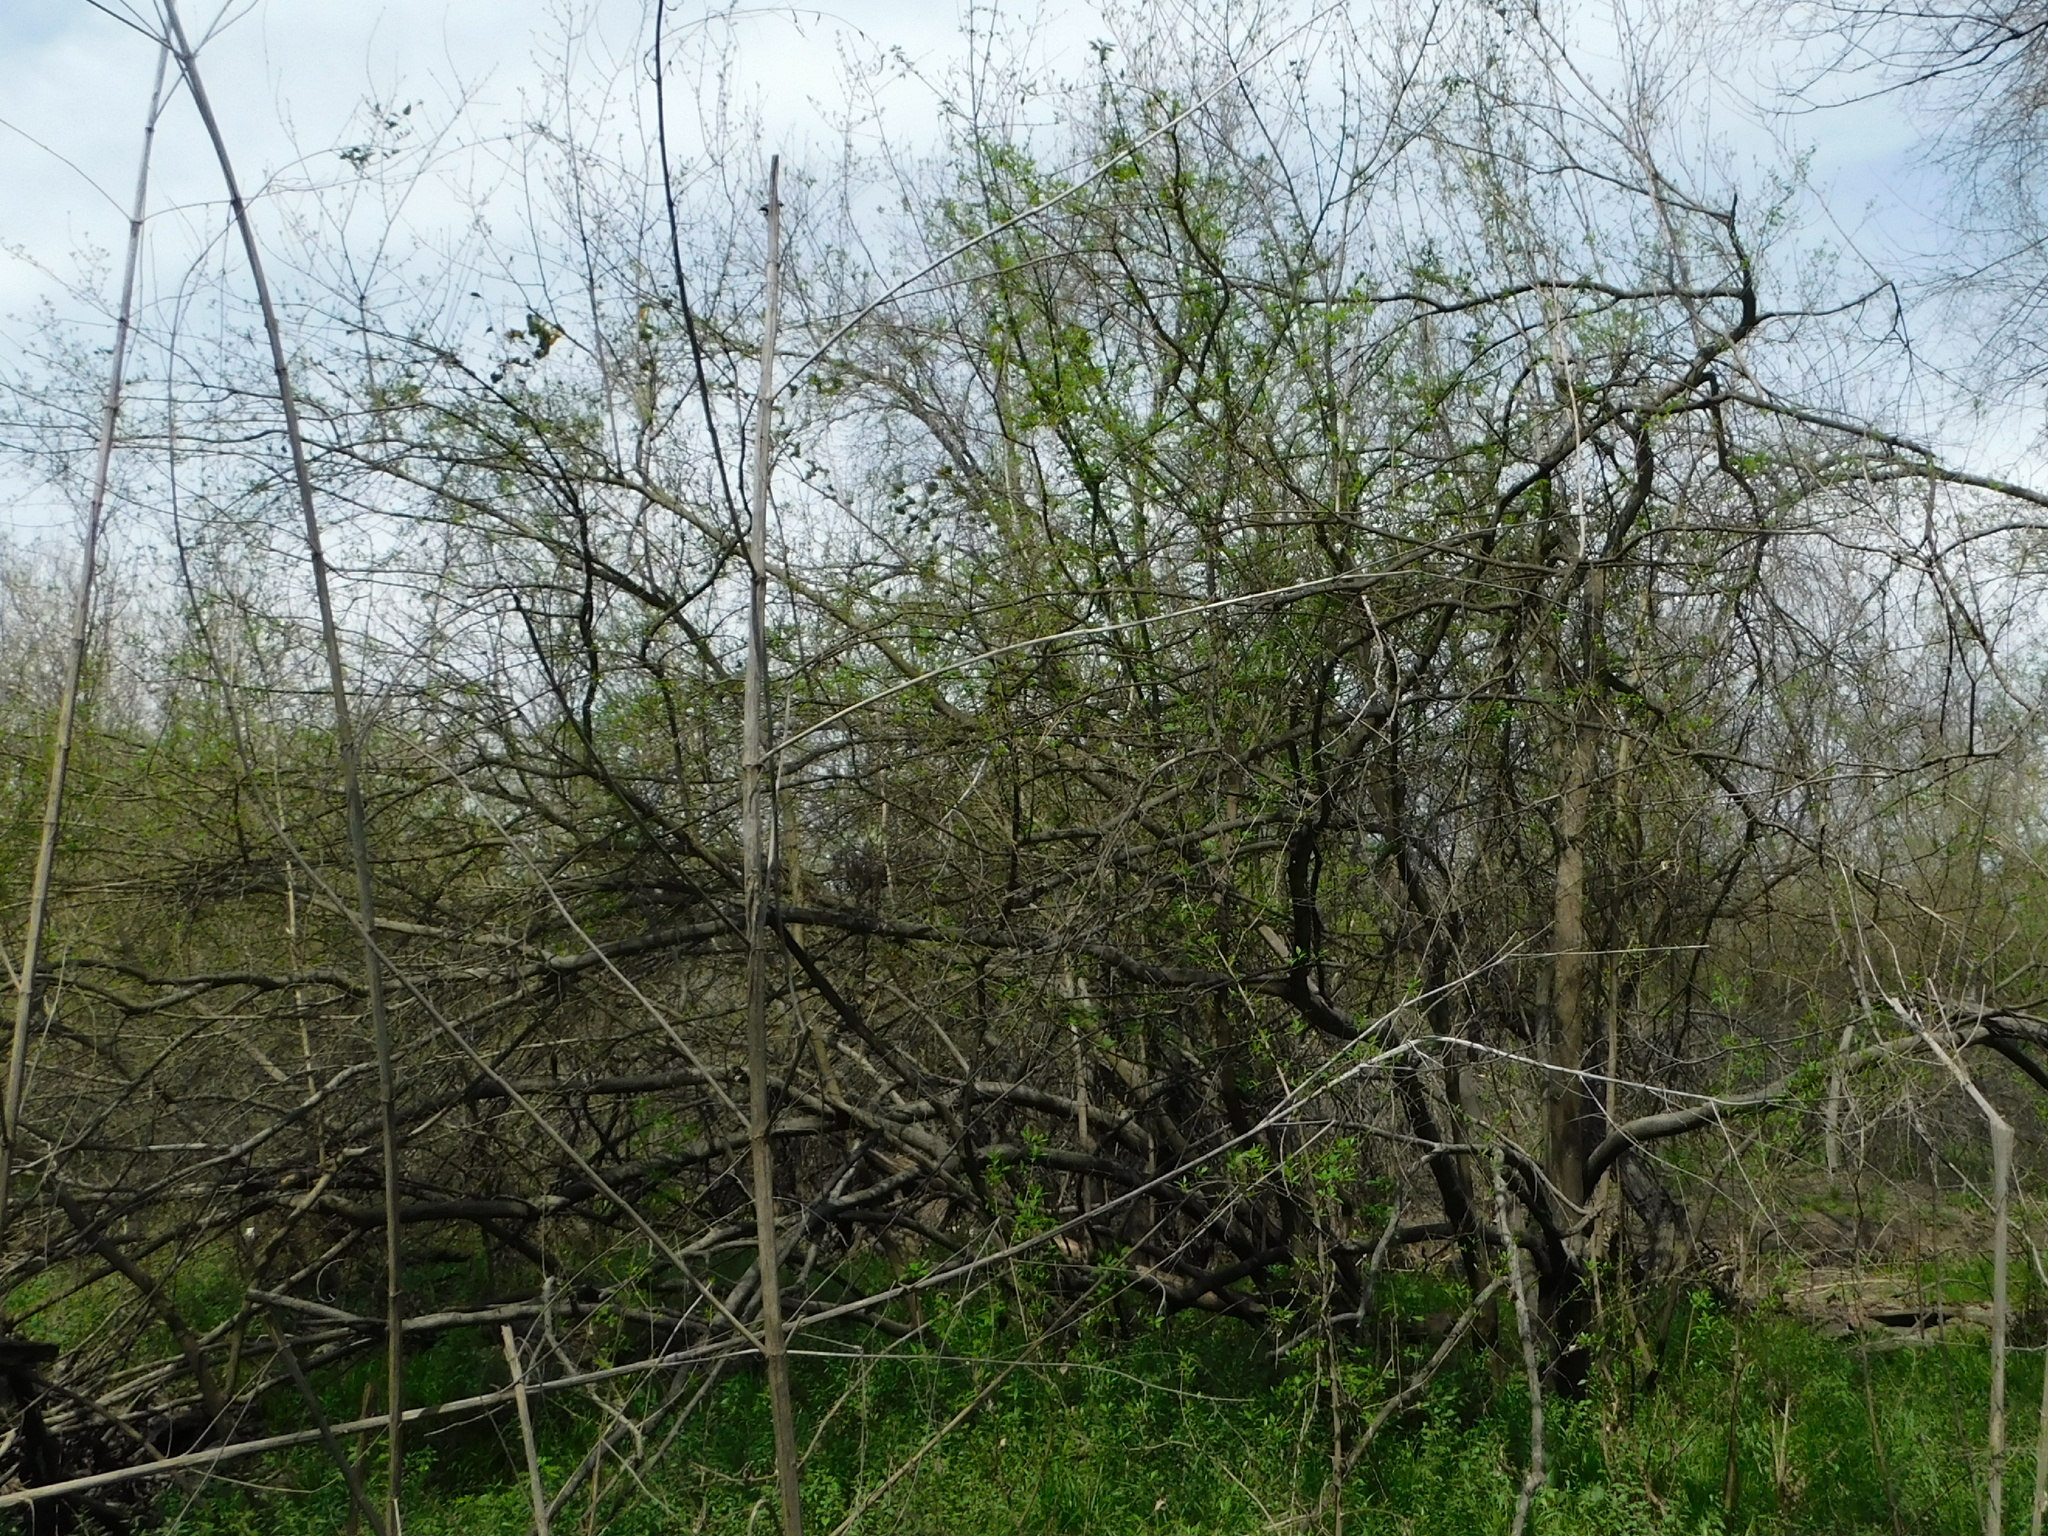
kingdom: Plantae
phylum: Tracheophyta
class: Magnoliopsida
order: Lamiales
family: Oleaceae
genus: Forestiera
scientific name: Forestiera acuminata
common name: Swamp-privet
